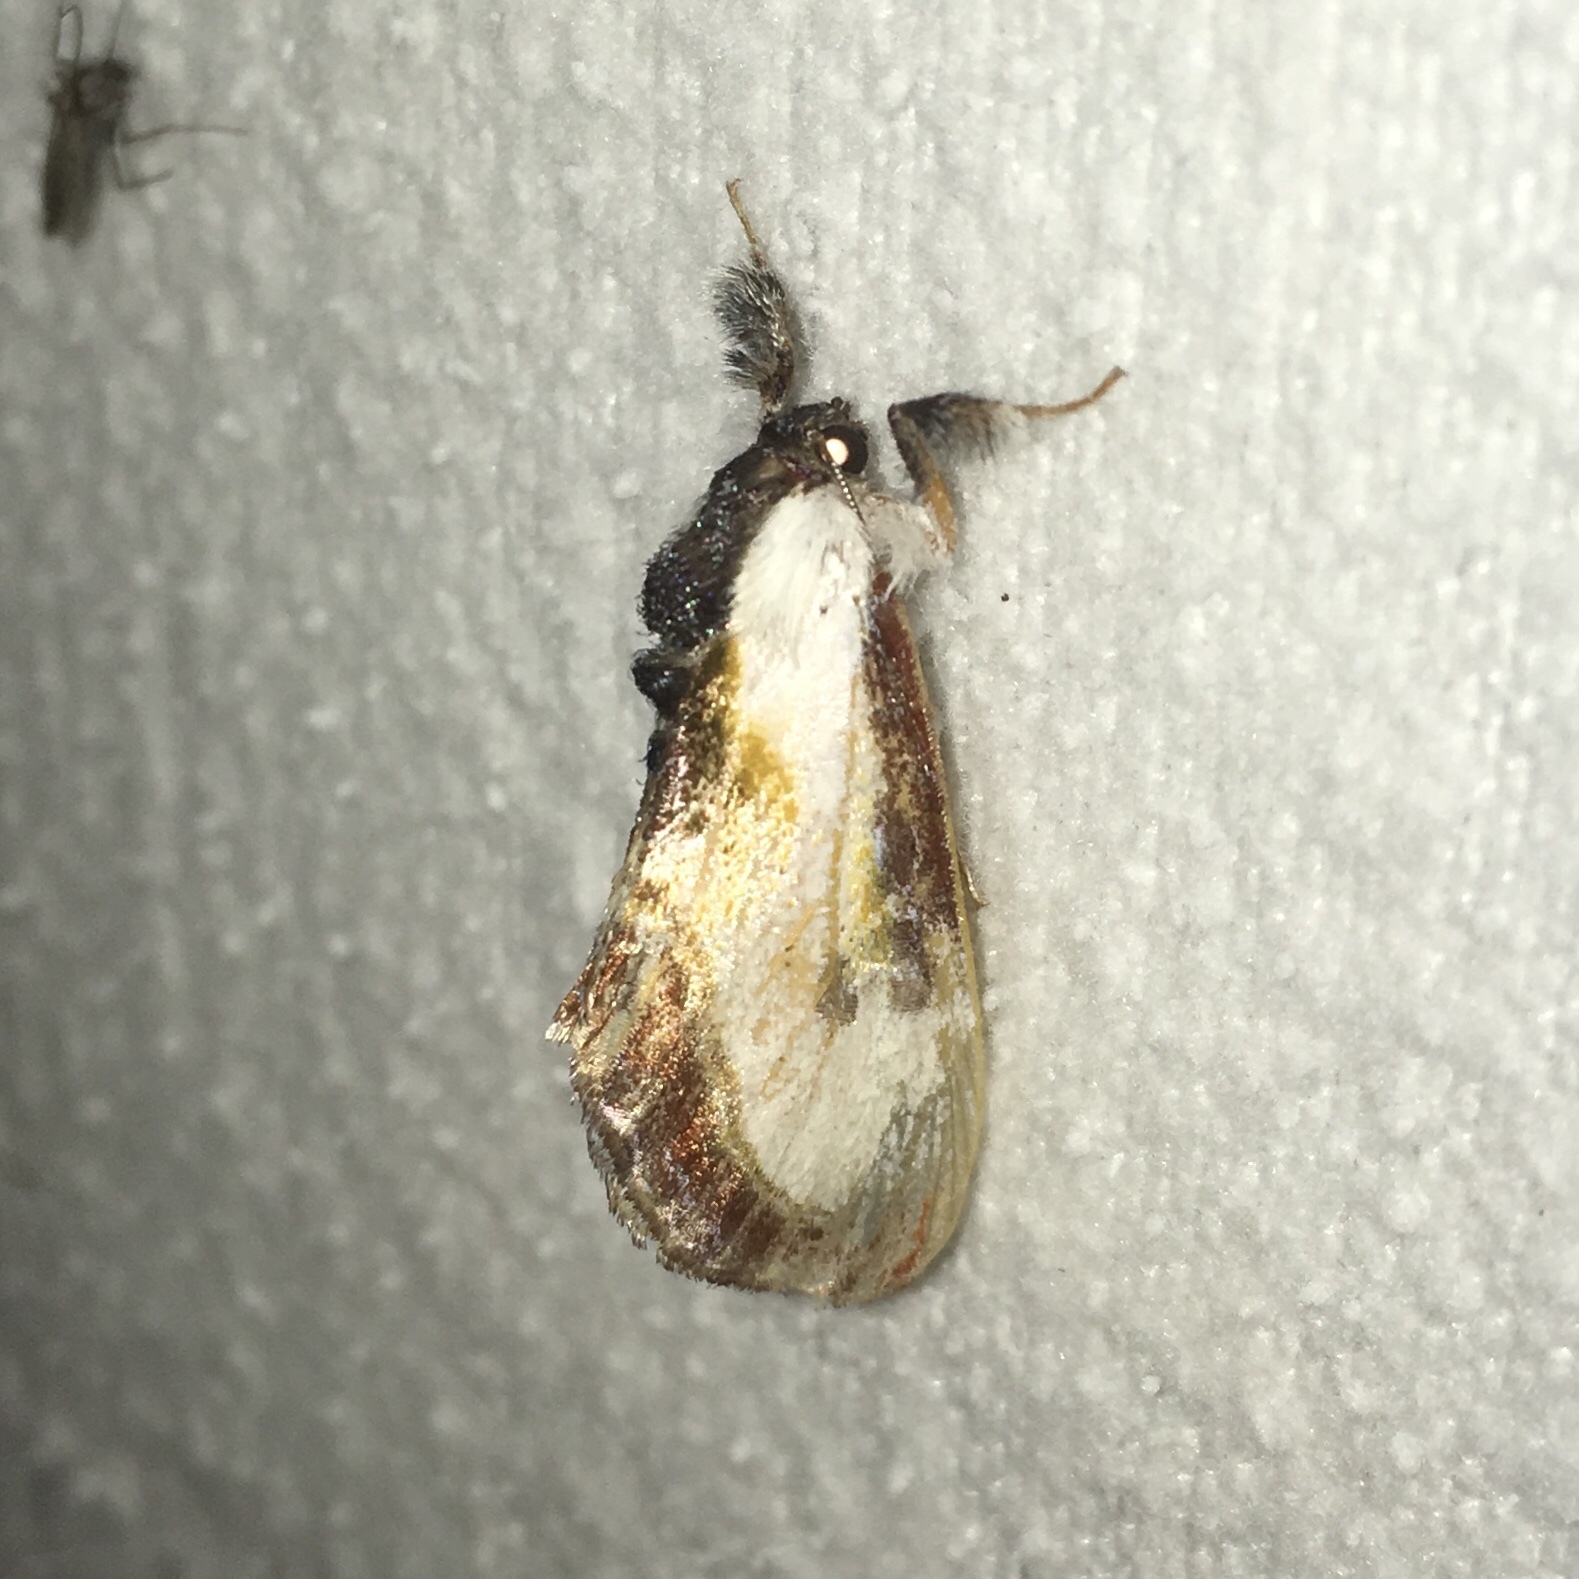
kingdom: Animalia
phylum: Arthropoda
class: Insecta
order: Lepidoptera
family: Noctuidae
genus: Eudryas
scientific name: Eudryas grata
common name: Beautiful wood-nymph
